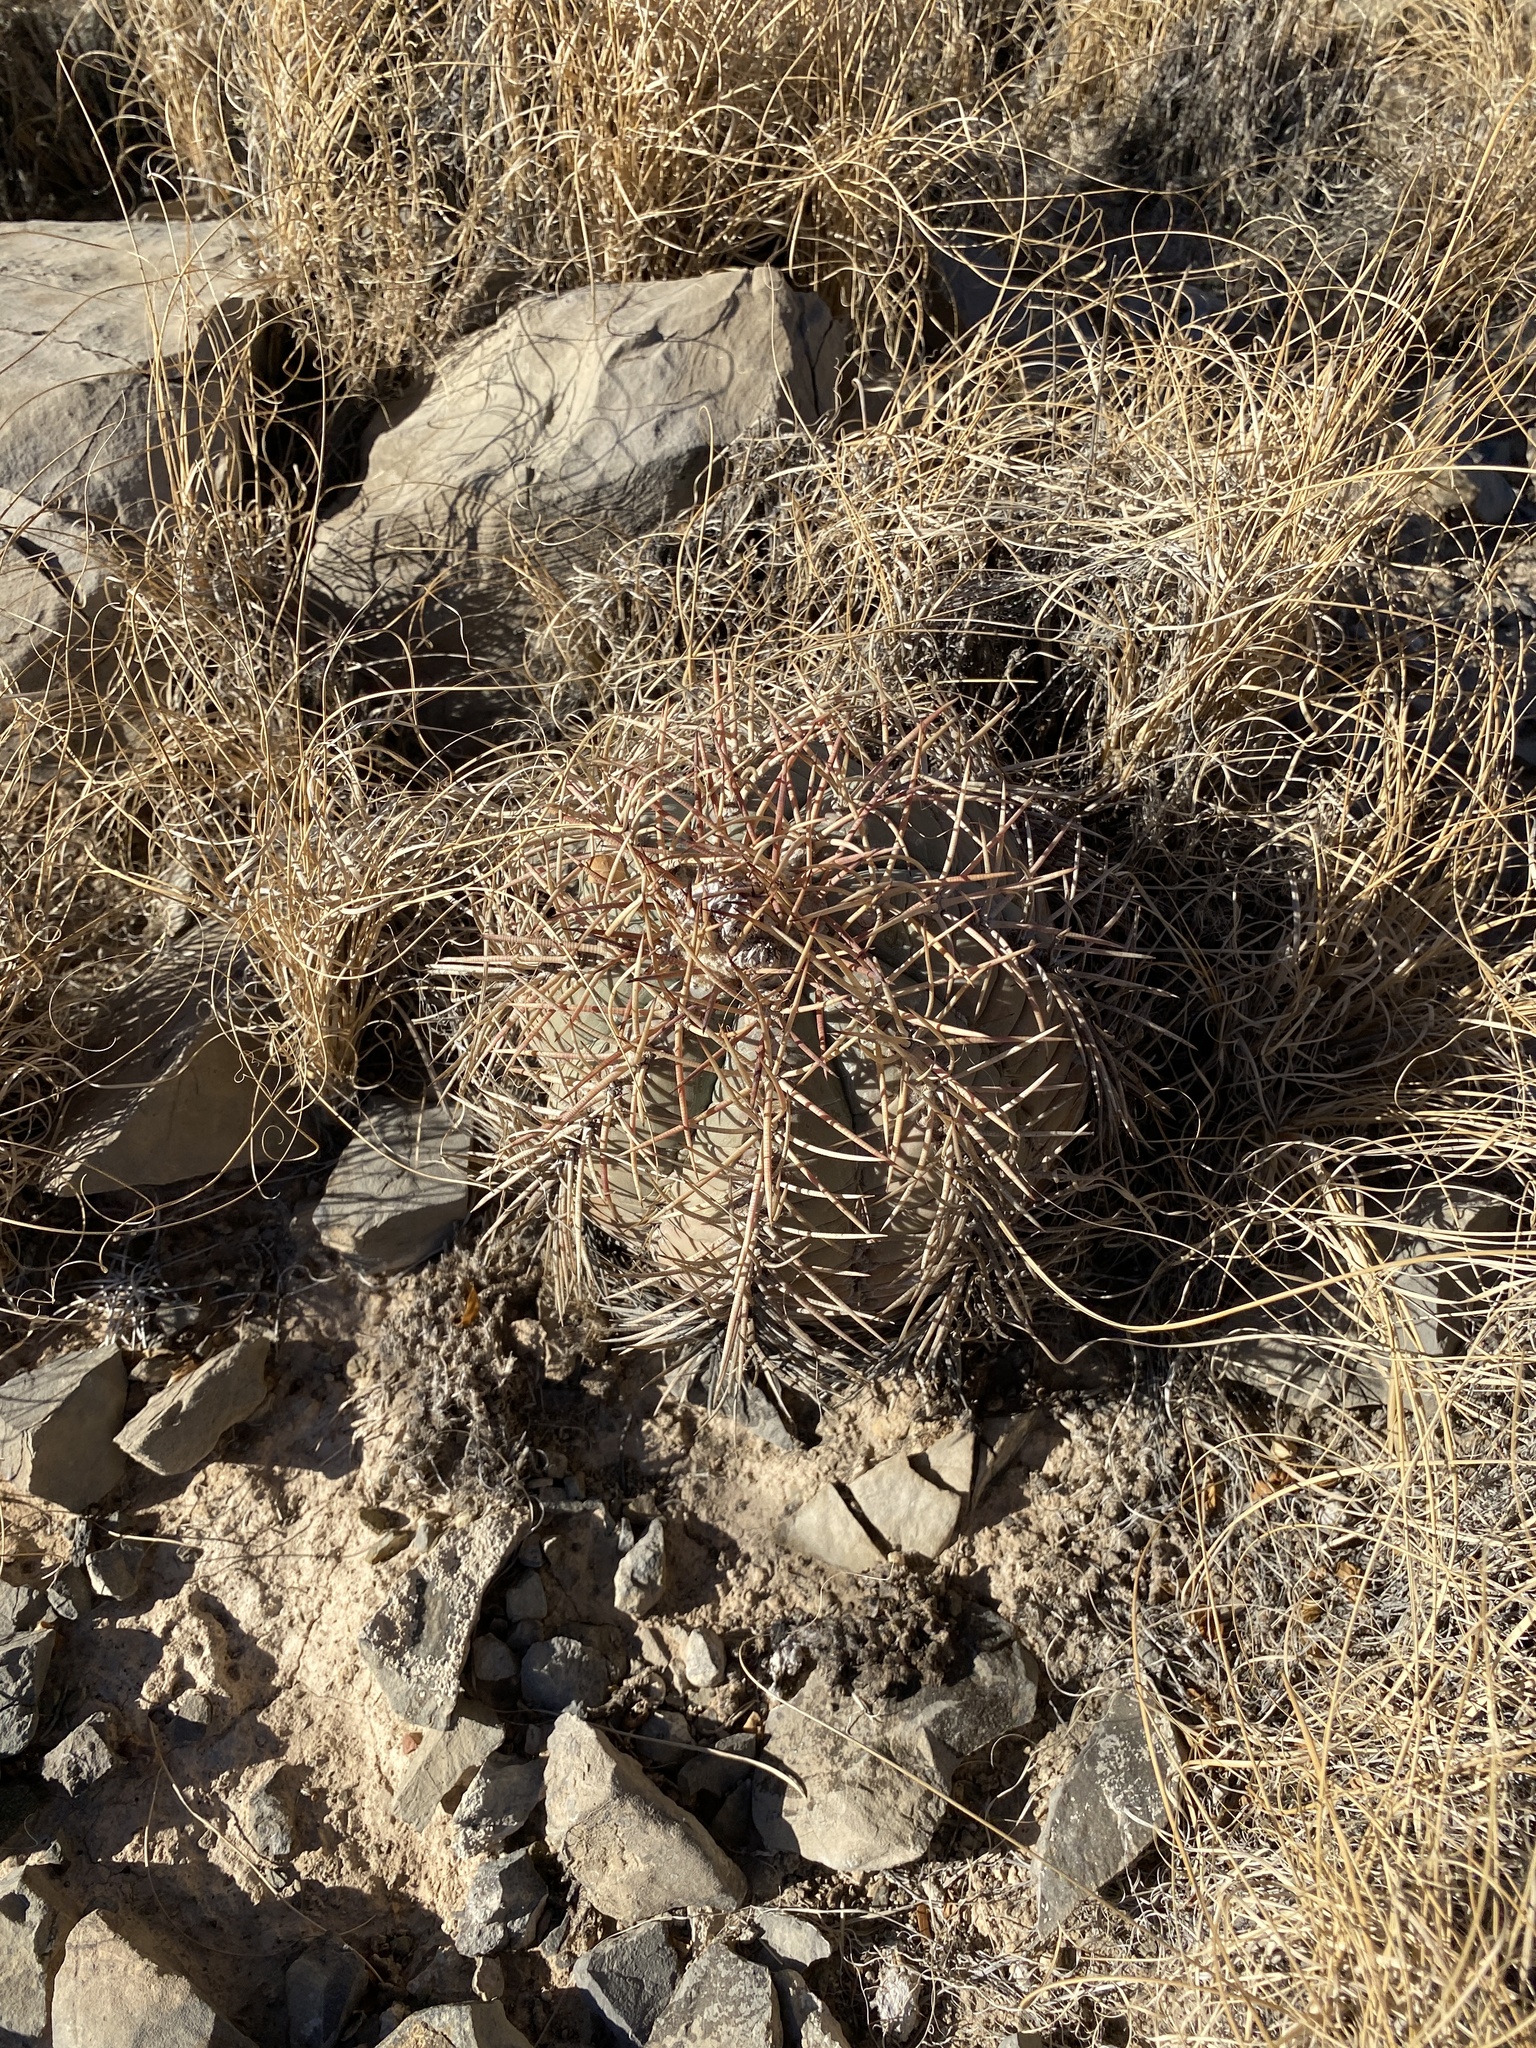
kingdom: Plantae
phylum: Tracheophyta
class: Magnoliopsida
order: Caryophyllales
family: Cactaceae
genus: Echinocactus
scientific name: Echinocactus horizonthalonius
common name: Devilshead
